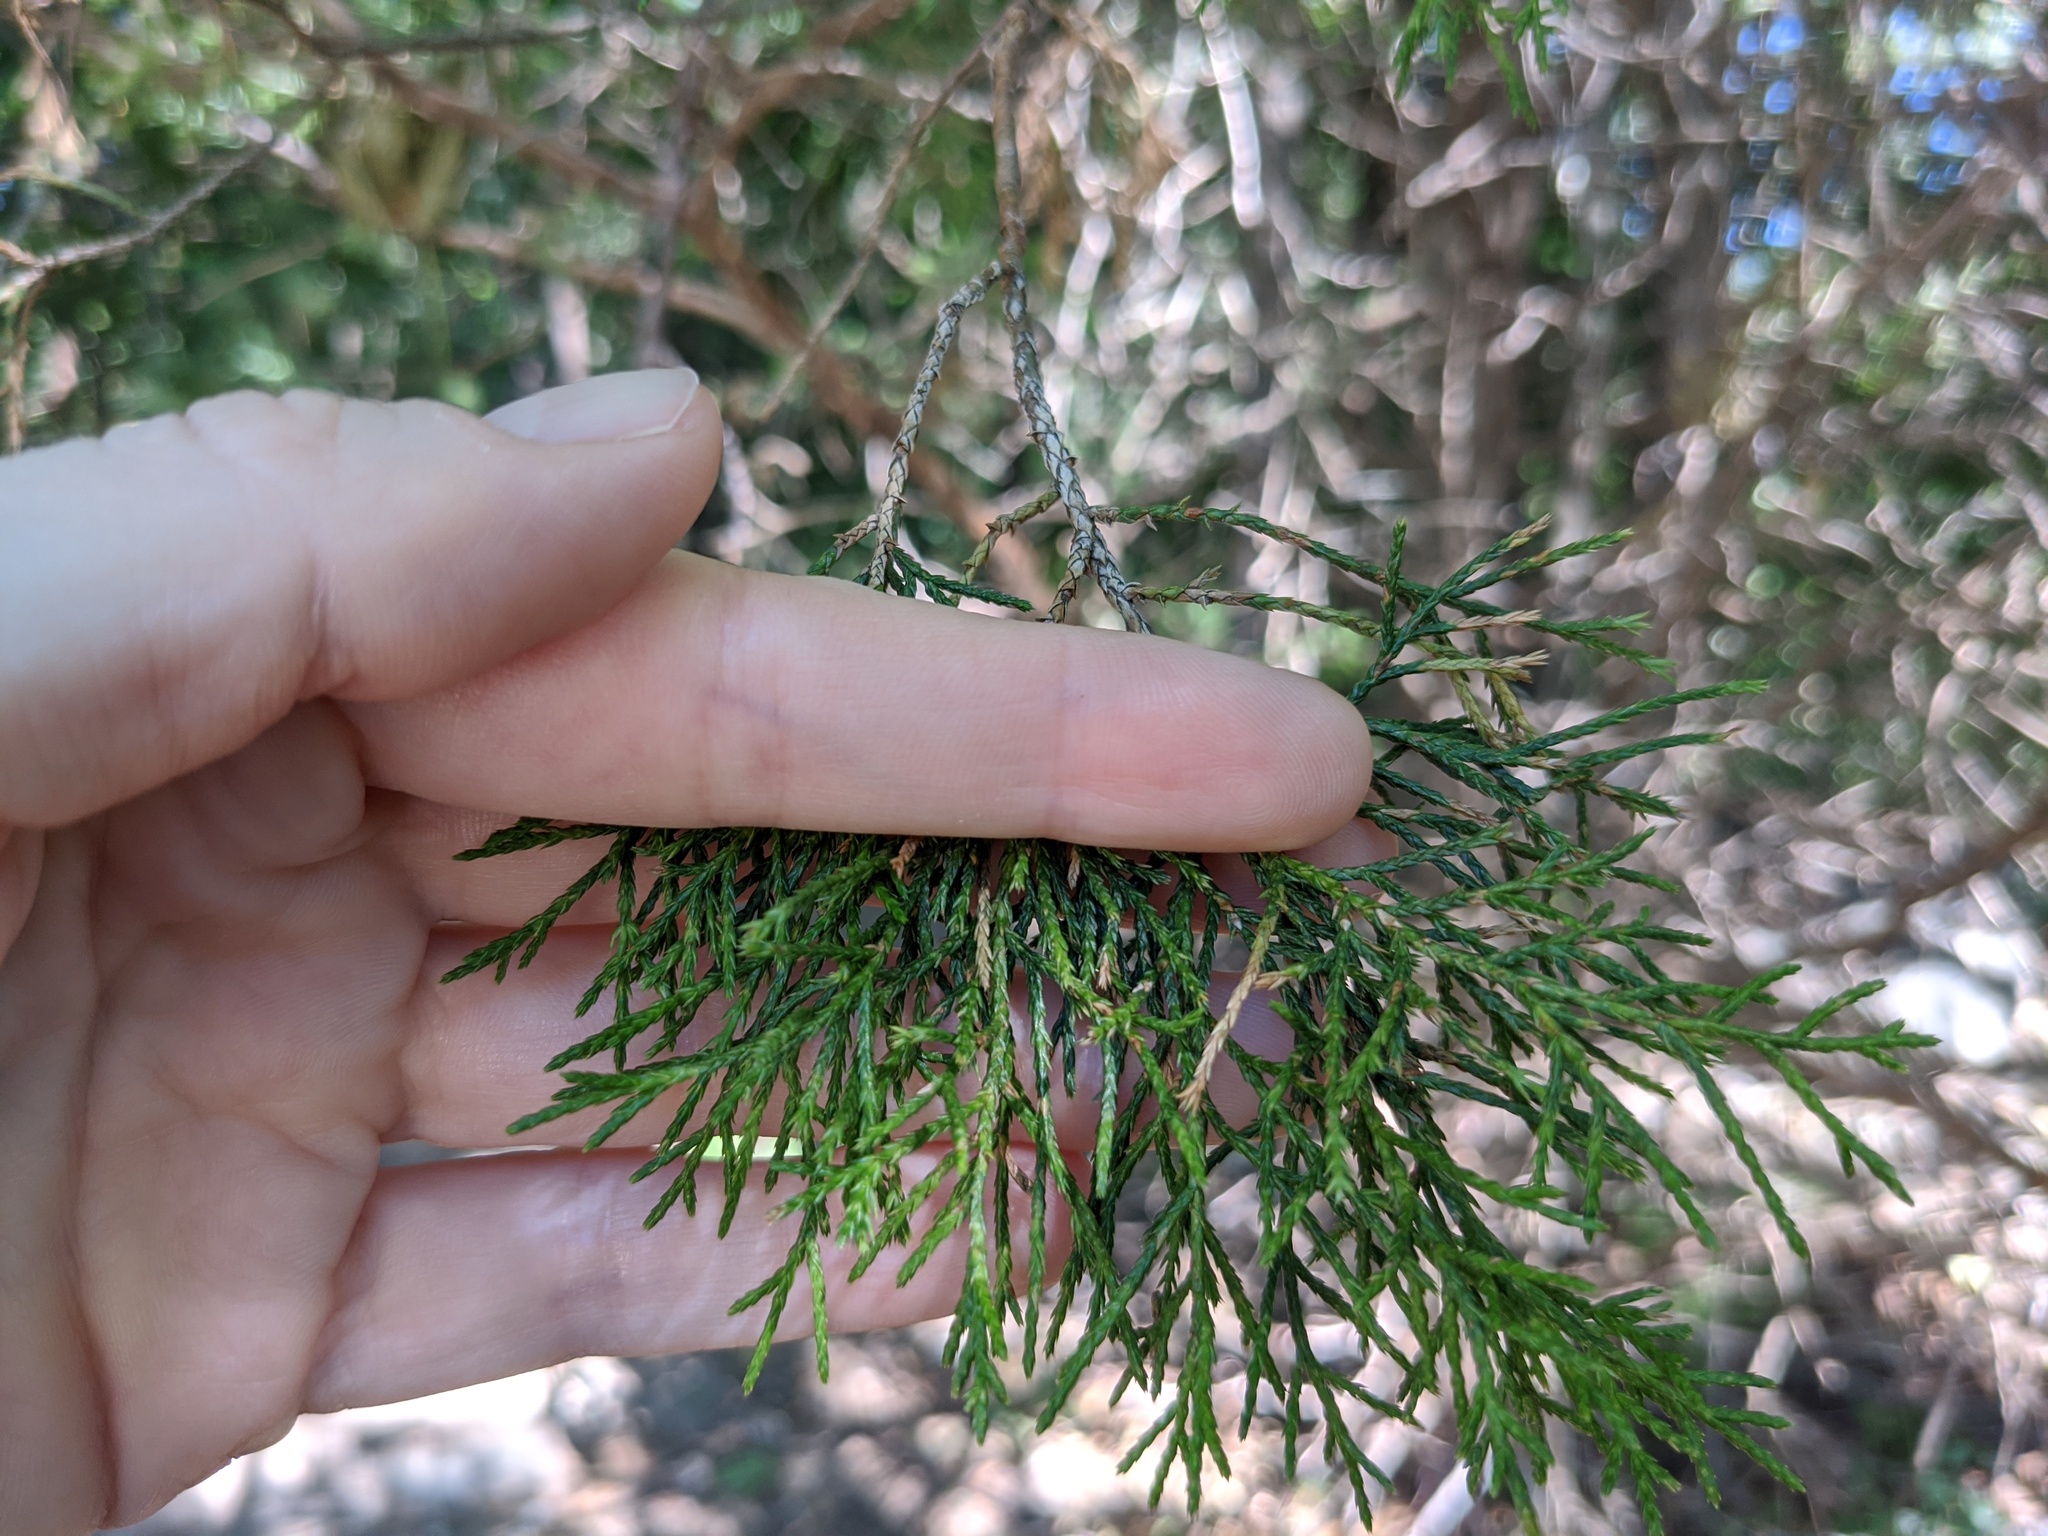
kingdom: Plantae
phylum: Tracheophyta
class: Pinopsida
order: Pinales
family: Cupressaceae
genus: Juniperus
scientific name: Juniperus virginiana
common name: Red juniper
